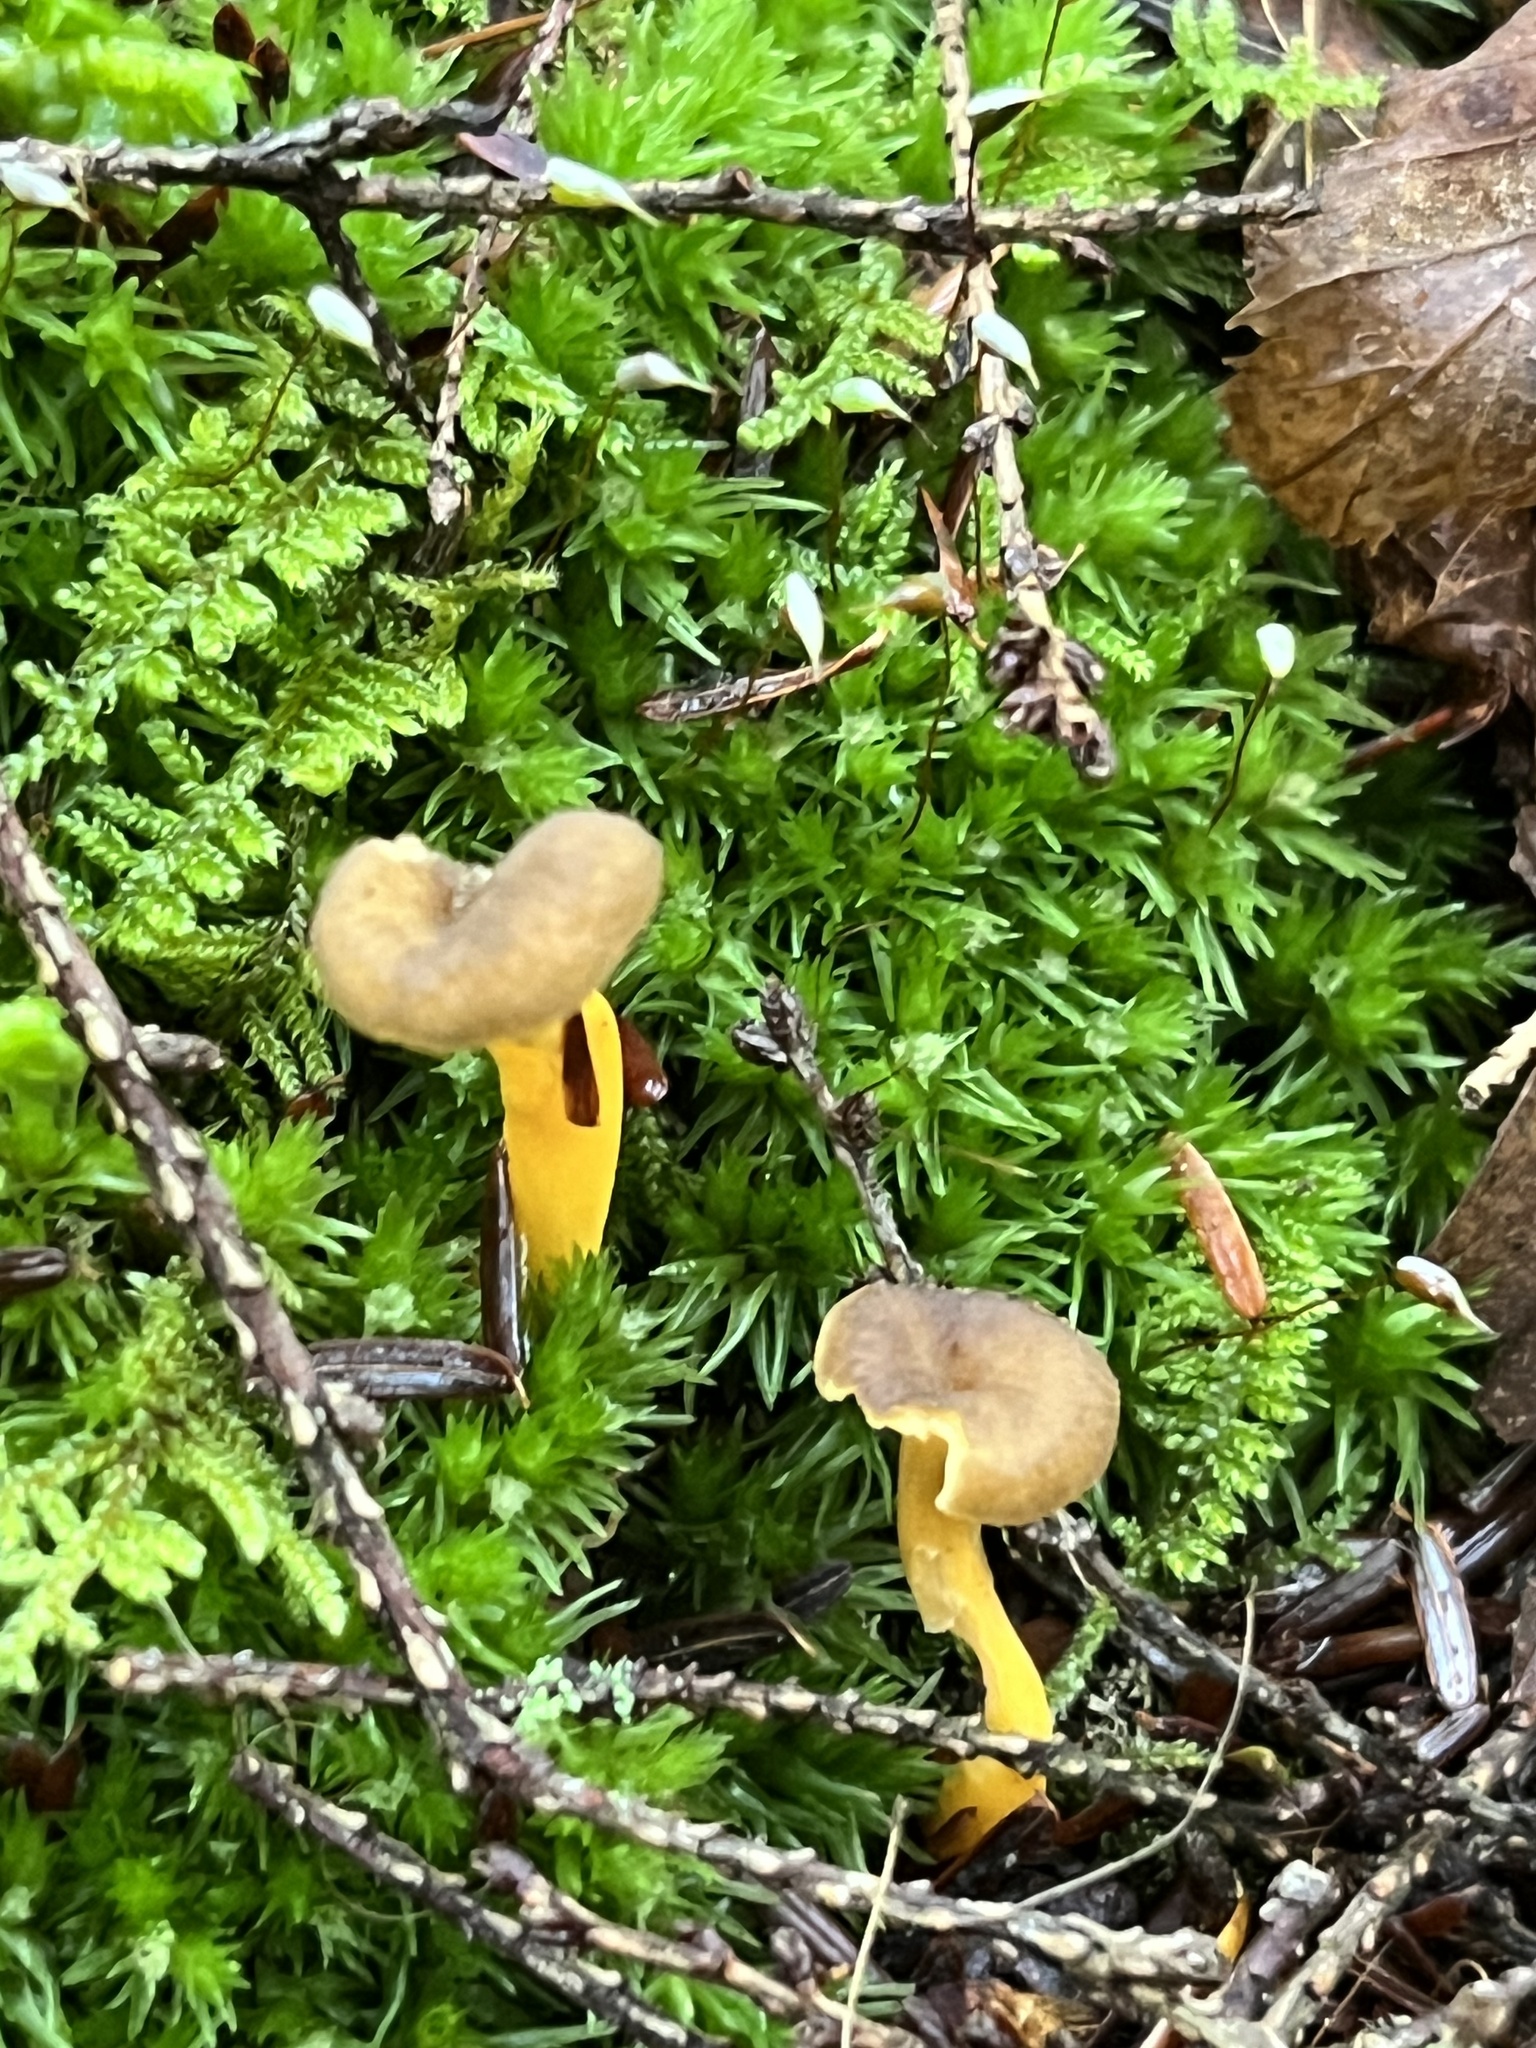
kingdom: Fungi
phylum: Basidiomycota
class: Agaricomycetes
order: Cantharellales
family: Hydnaceae
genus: Craterellus
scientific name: Craterellus tubaeformis
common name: Yellowfoot
